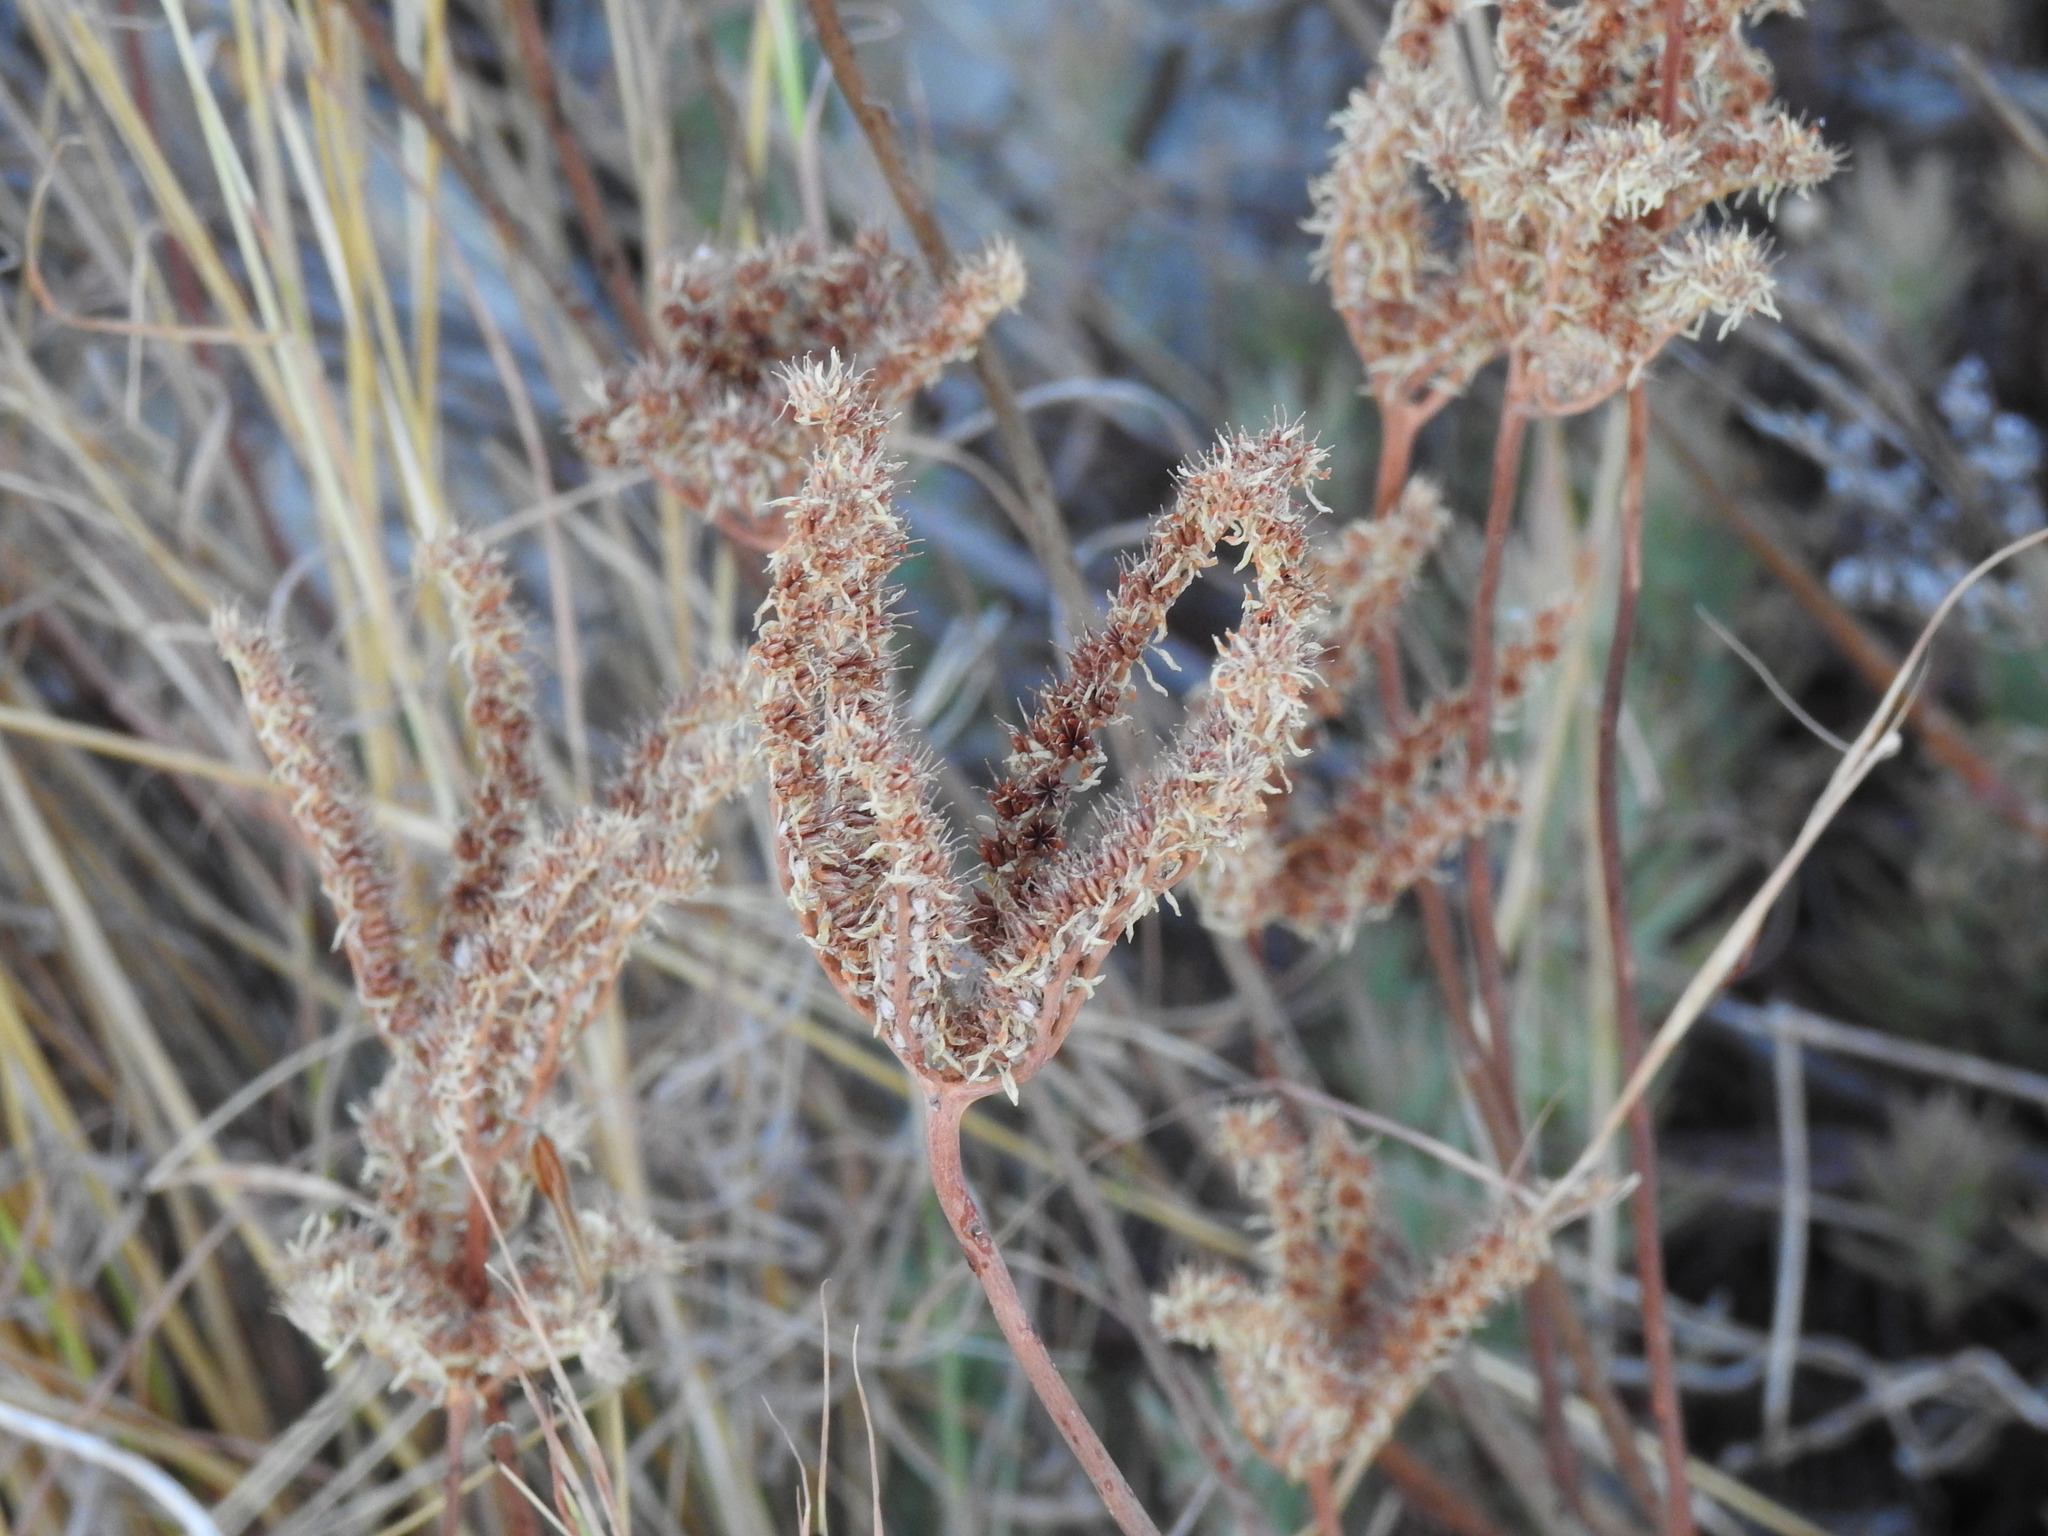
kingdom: Plantae
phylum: Tracheophyta
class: Magnoliopsida
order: Saxifragales
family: Crassulaceae
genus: Petrosedum
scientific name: Petrosedum sediforme
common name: Pale stonecrop
